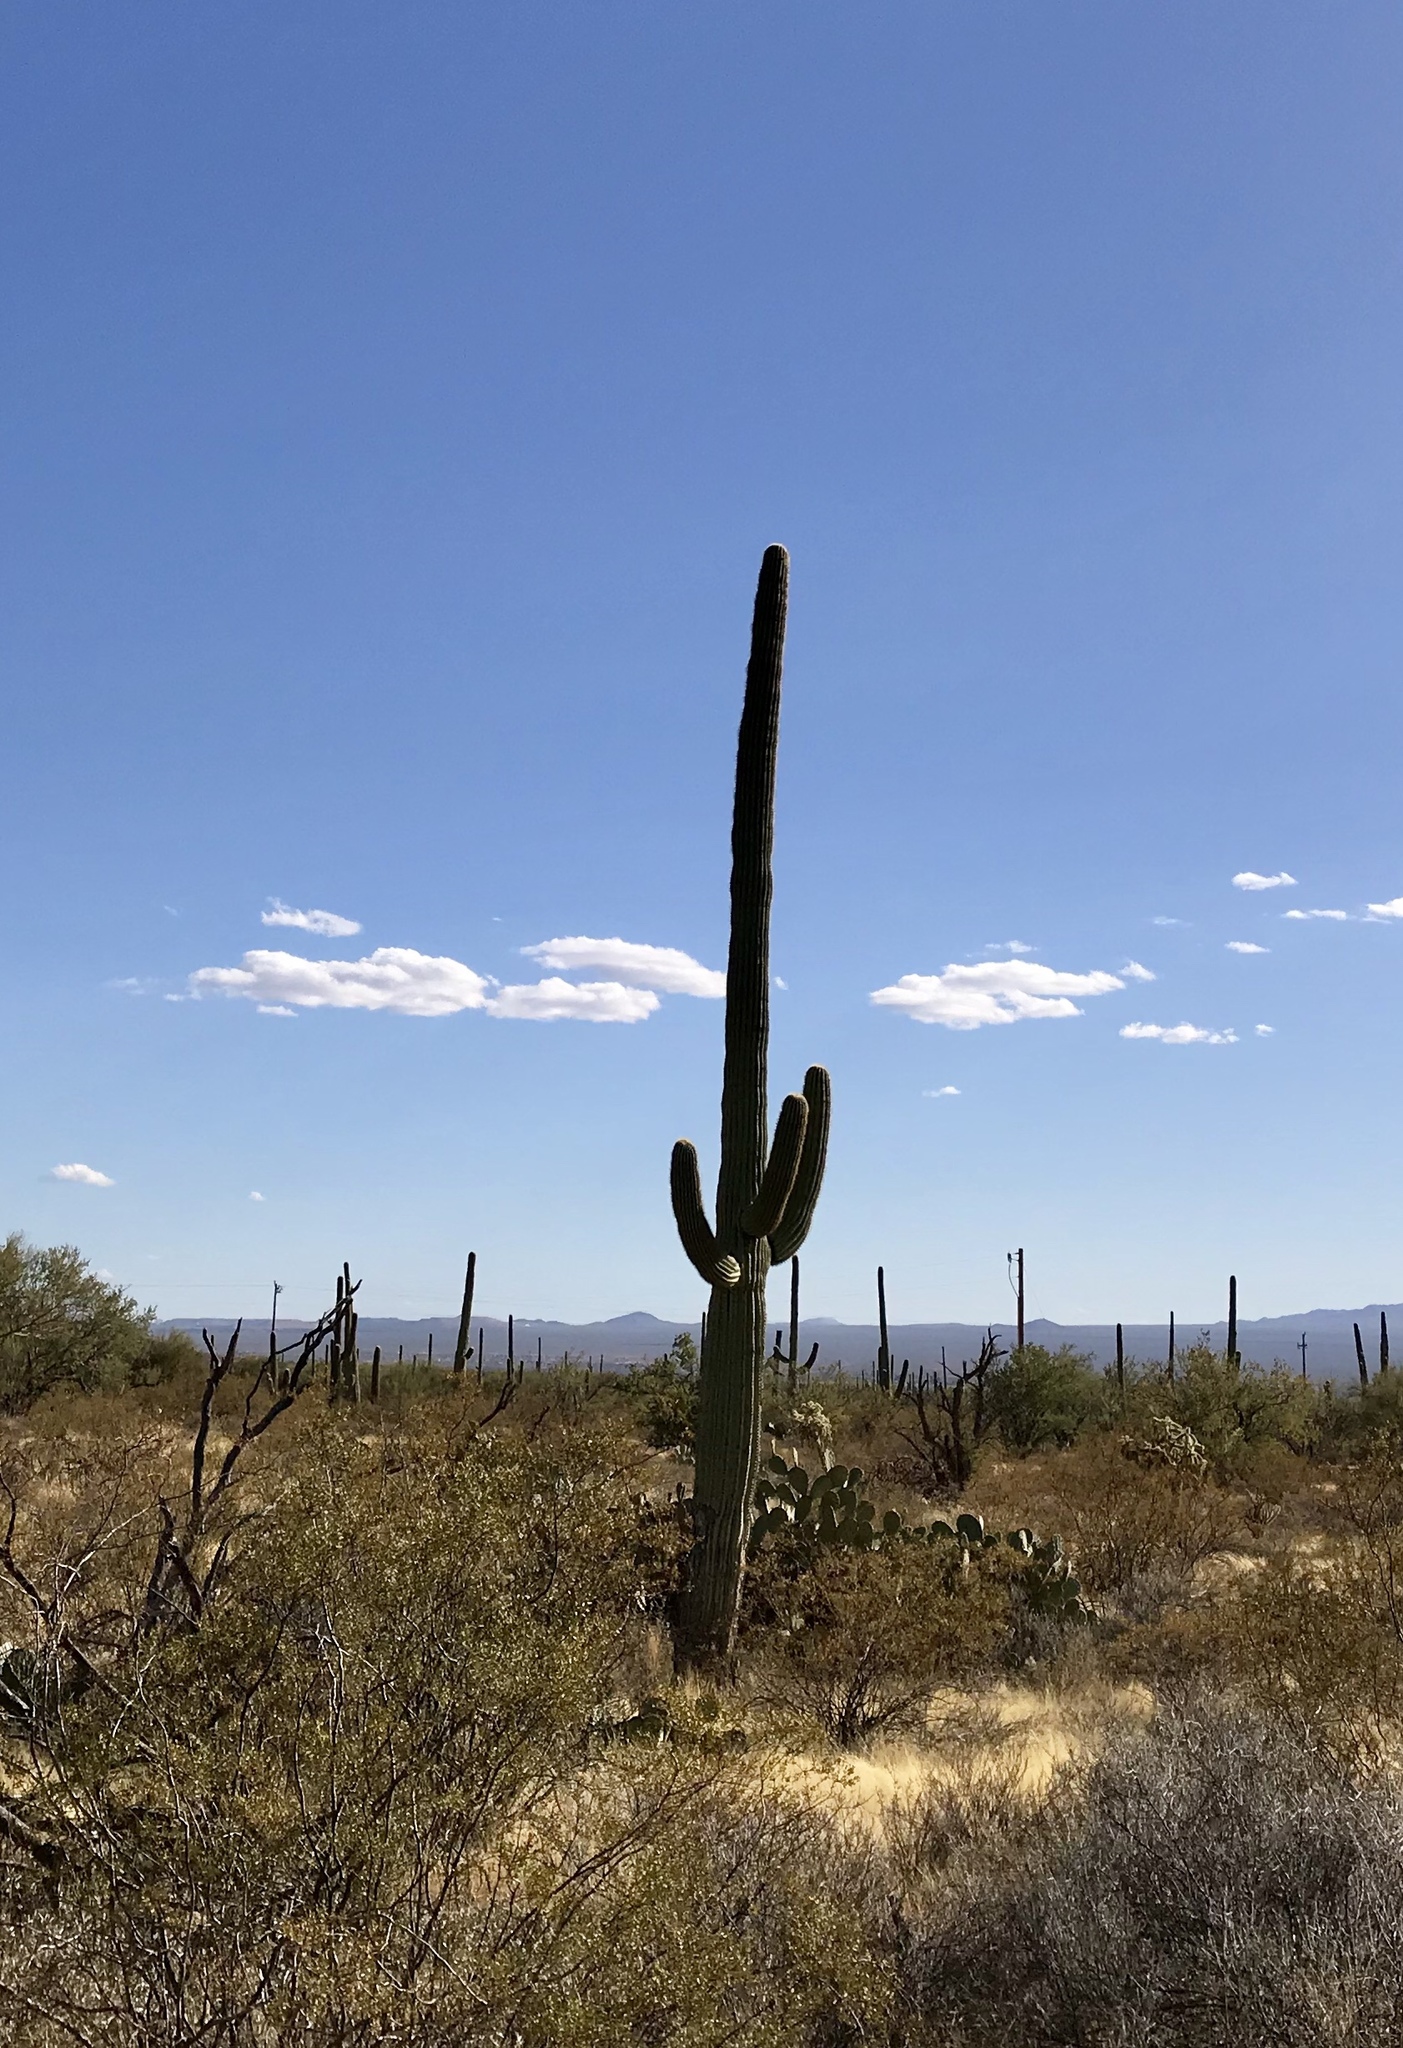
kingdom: Plantae
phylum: Tracheophyta
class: Magnoliopsida
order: Caryophyllales
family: Cactaceae
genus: Carnegiea
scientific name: Carnegiea gigantea
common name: Saguaro
